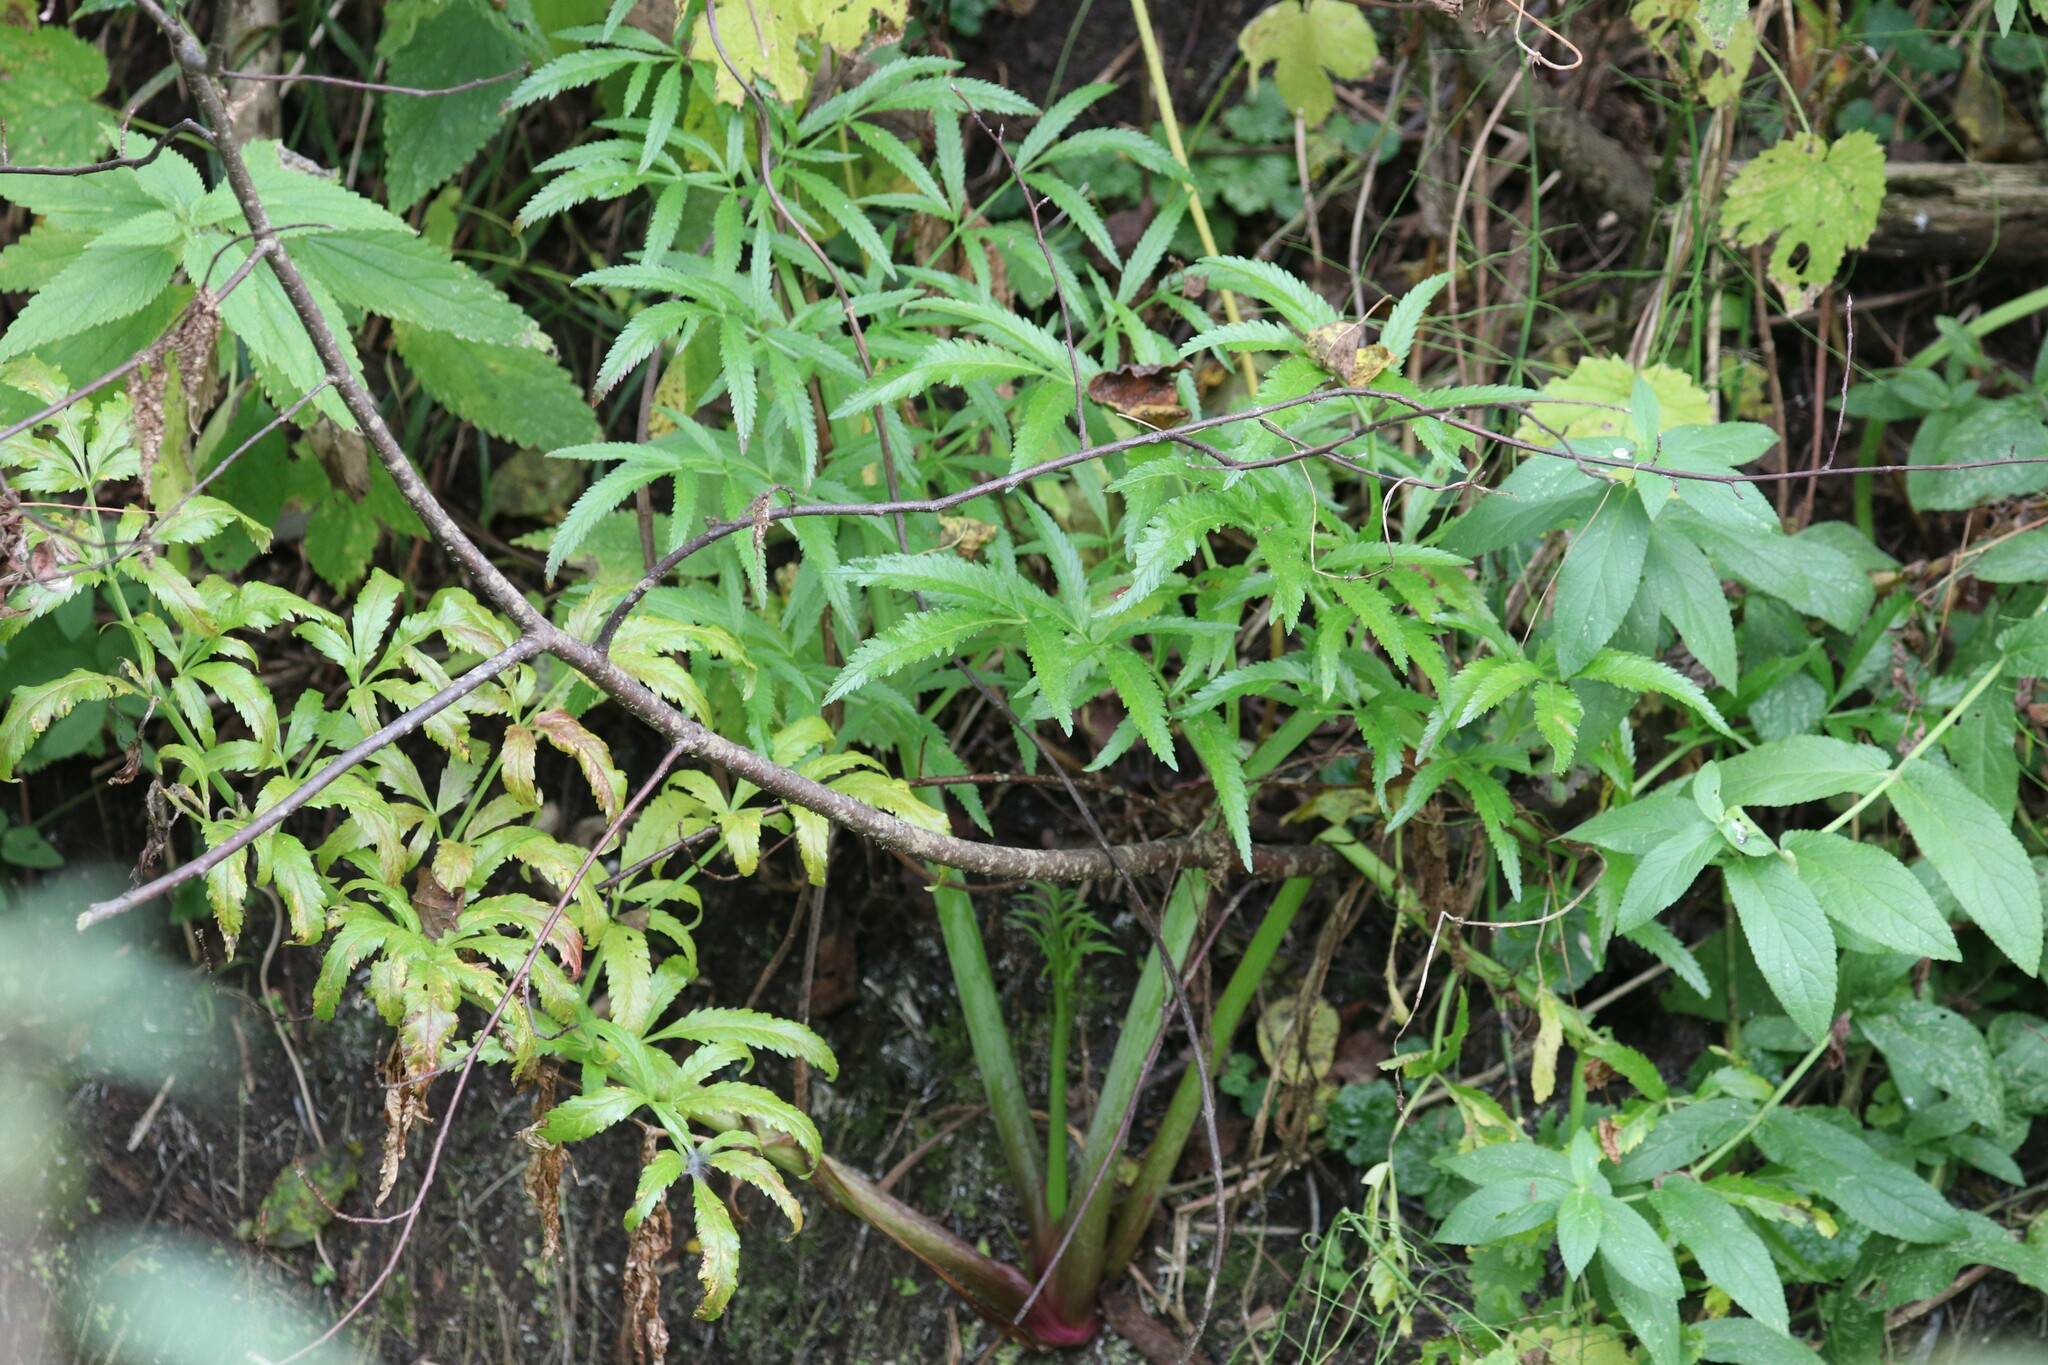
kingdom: Plantae
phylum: Tracheophyta
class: Magnoliopsida
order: Apiales
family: Apiaceae
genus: Cicuta
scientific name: Cicuta virosa
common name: Cowbane
